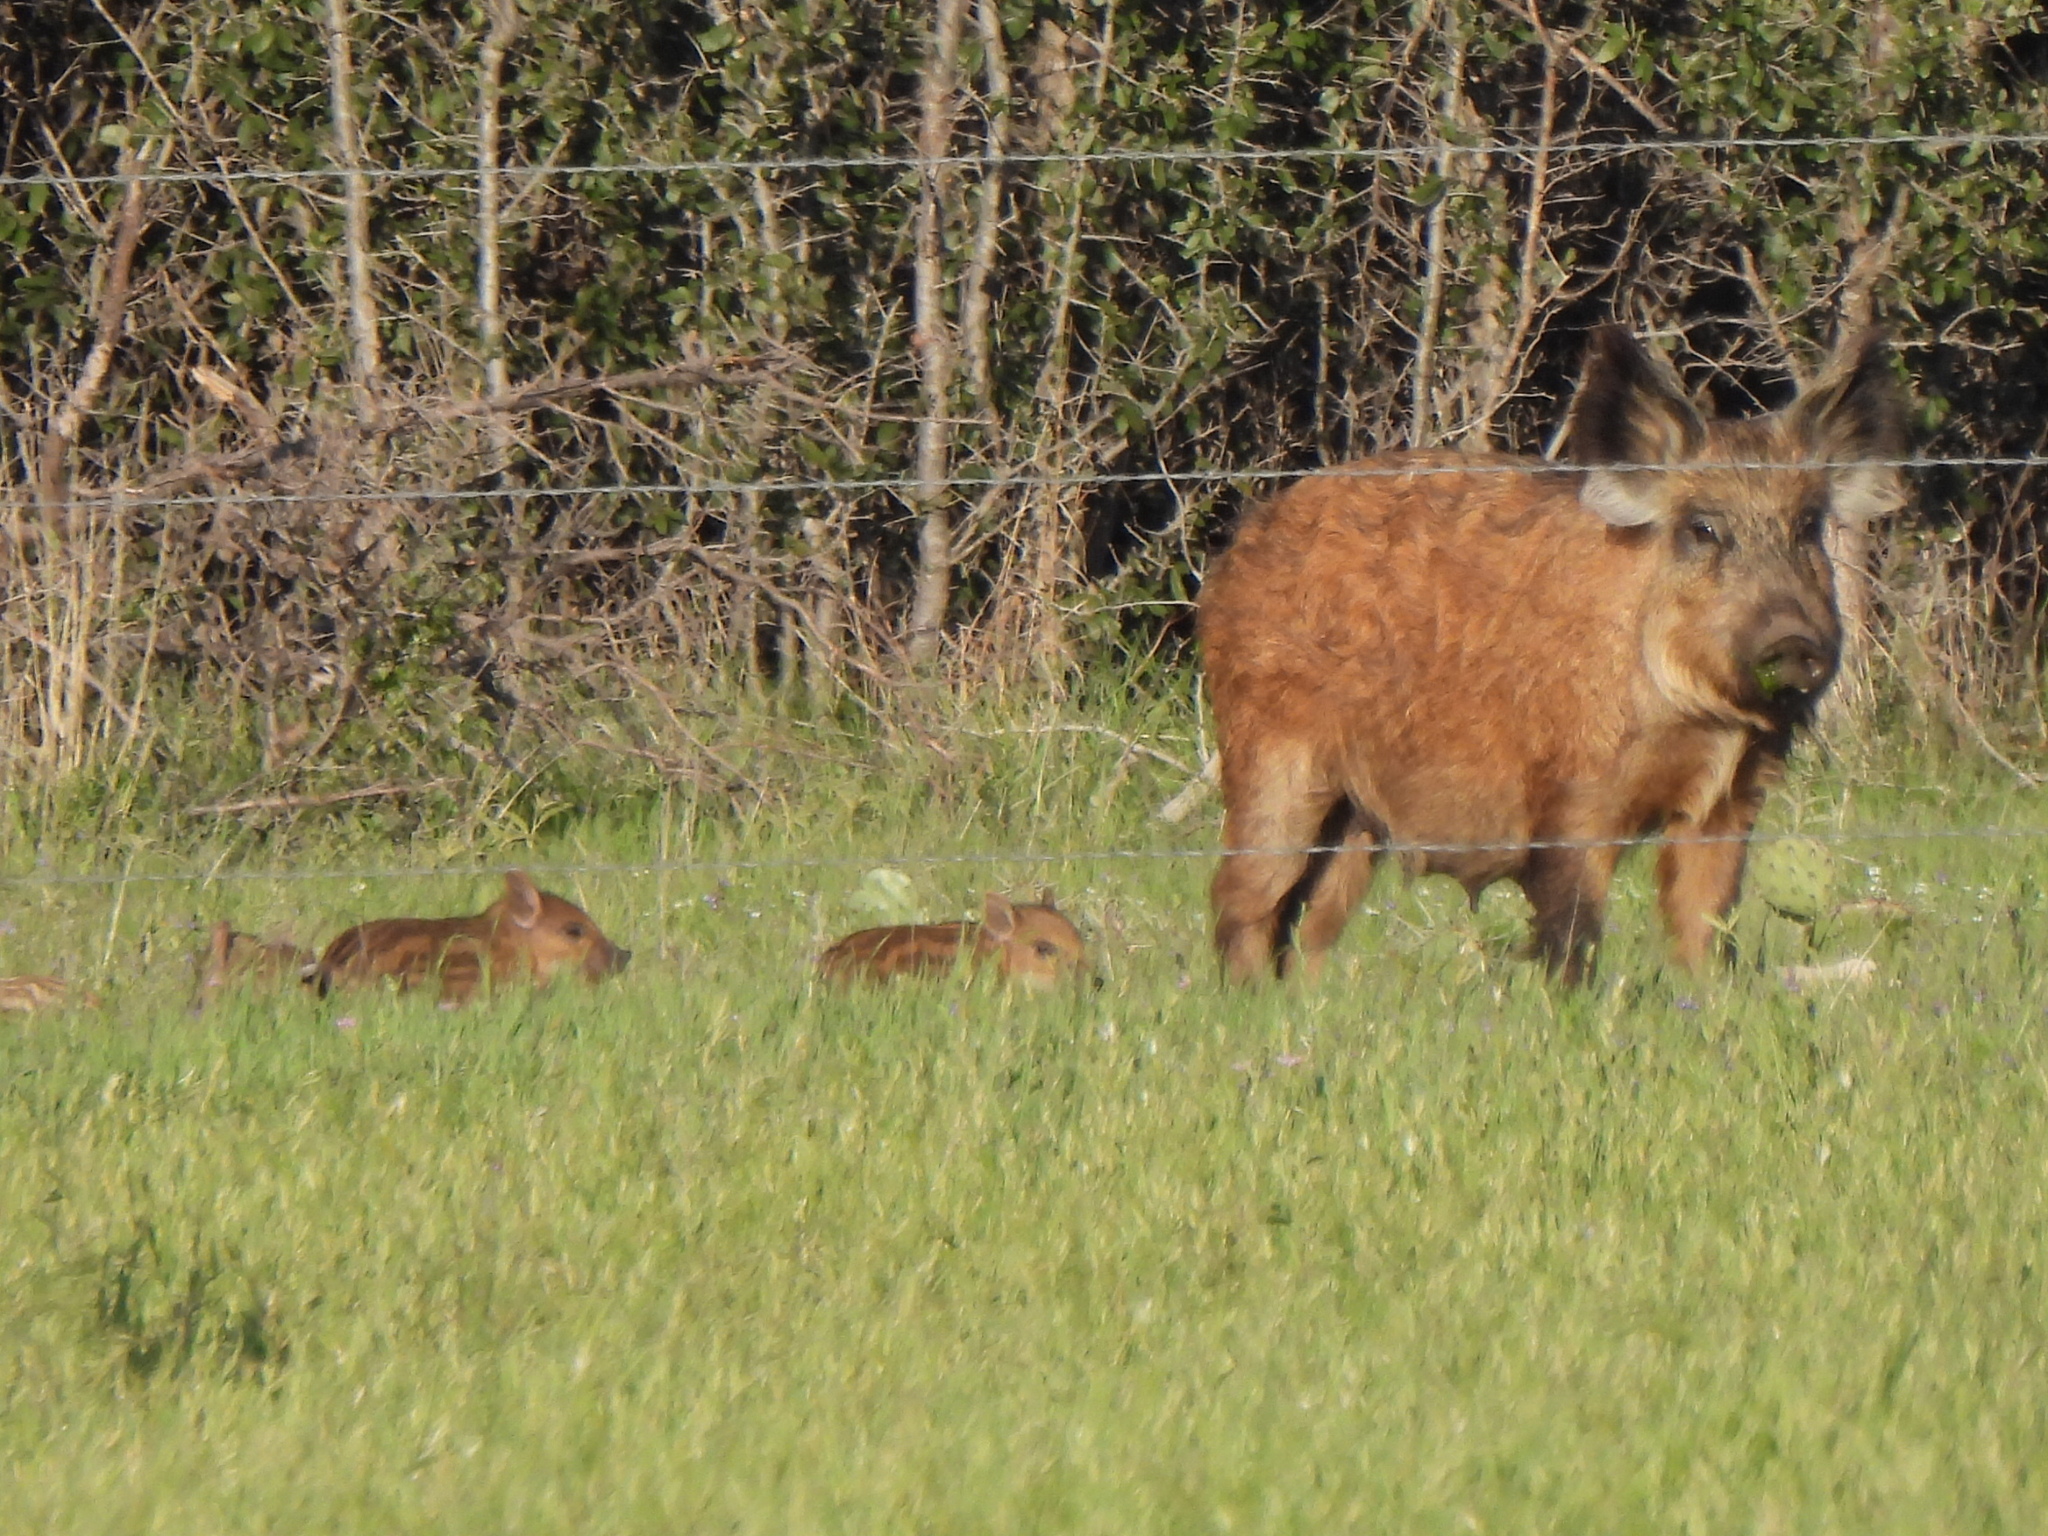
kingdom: Animalia
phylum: Chordata
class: Mammalia
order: Artiodactyla
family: Suidae
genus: Sus
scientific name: Sus scrofa
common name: Wild boar
